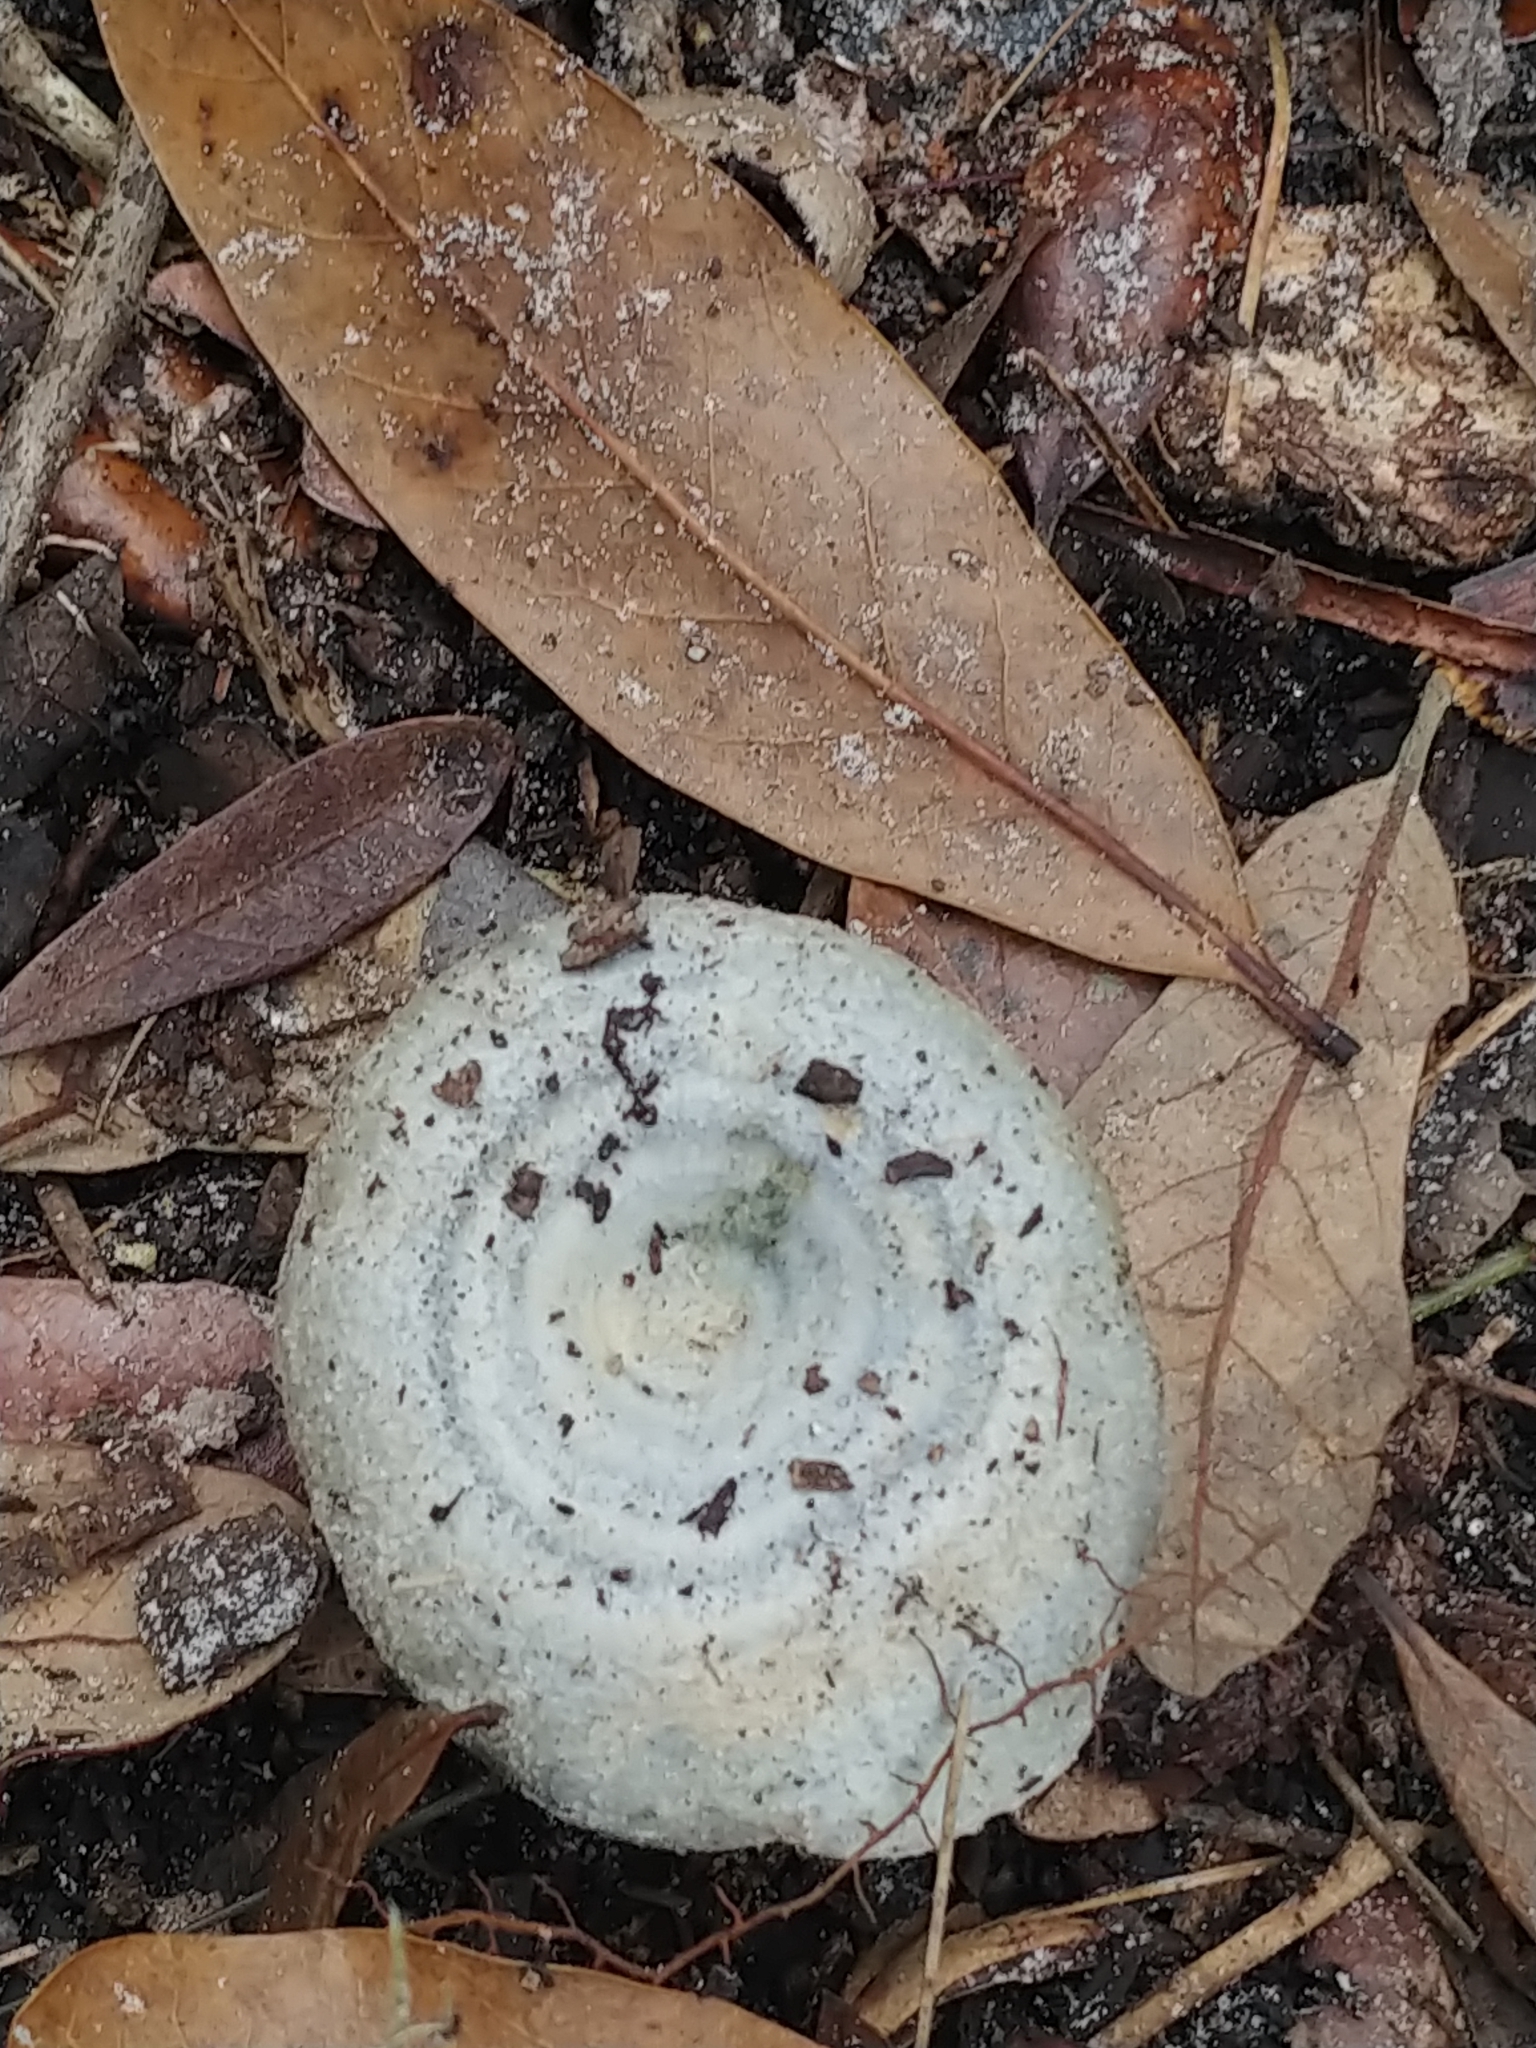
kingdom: Fungi
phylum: Basidiomycota
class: Agaricomycetes
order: Russulales
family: Russulaceae
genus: Lactarius
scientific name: Lactarius indigo
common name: Indigo milk cap
